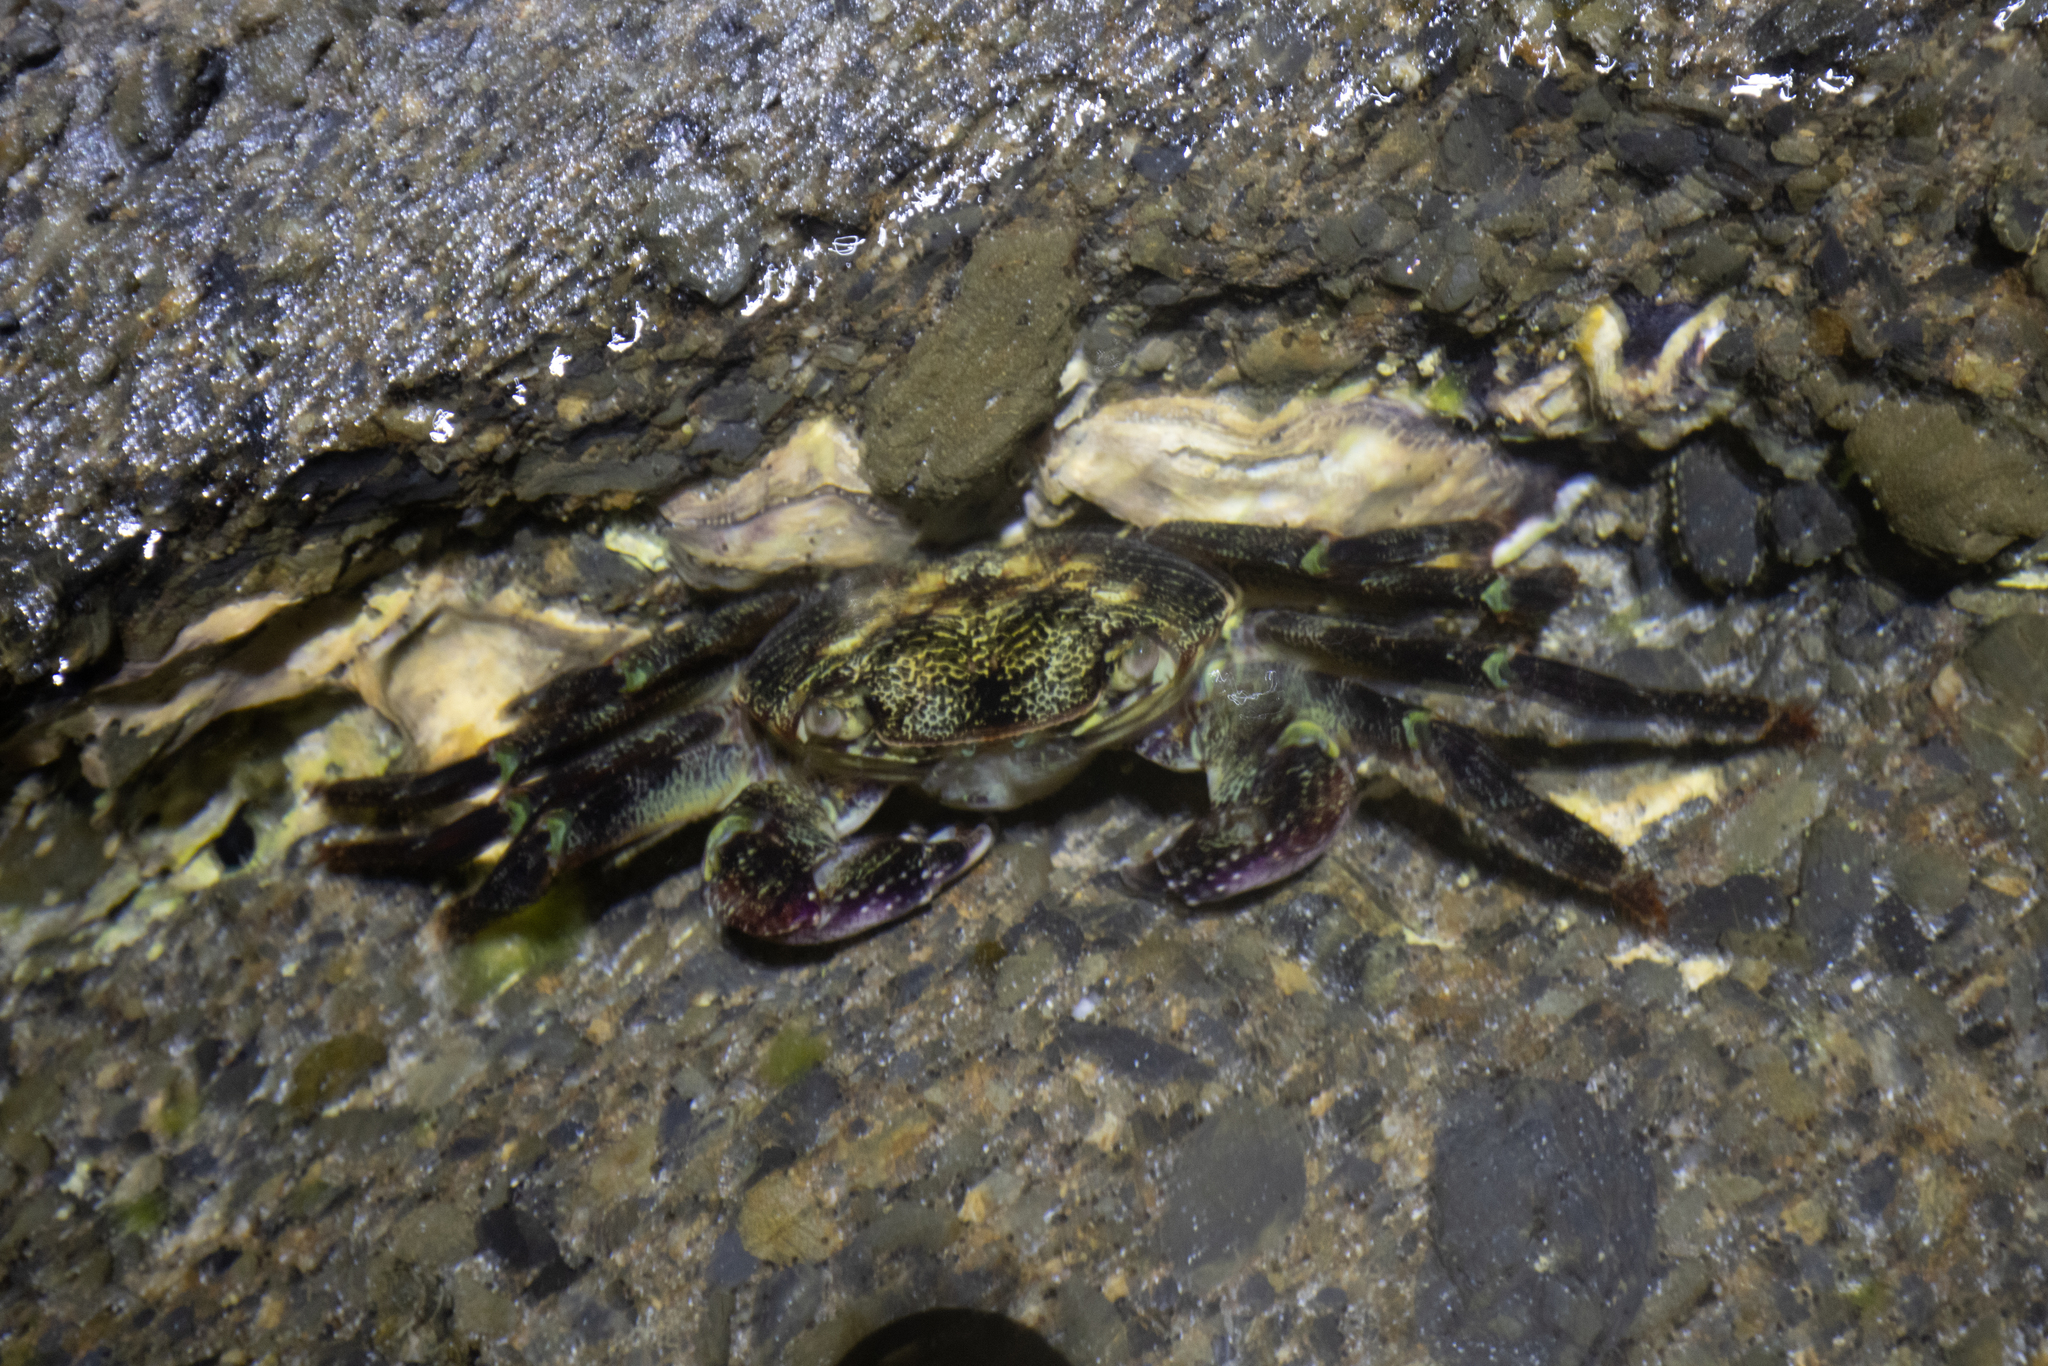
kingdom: Animalia
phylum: Arthropoda
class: Malacostraca
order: Decapoda
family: Grapsidae
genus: Leptograpsus
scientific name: Leptograpsus variegatus
